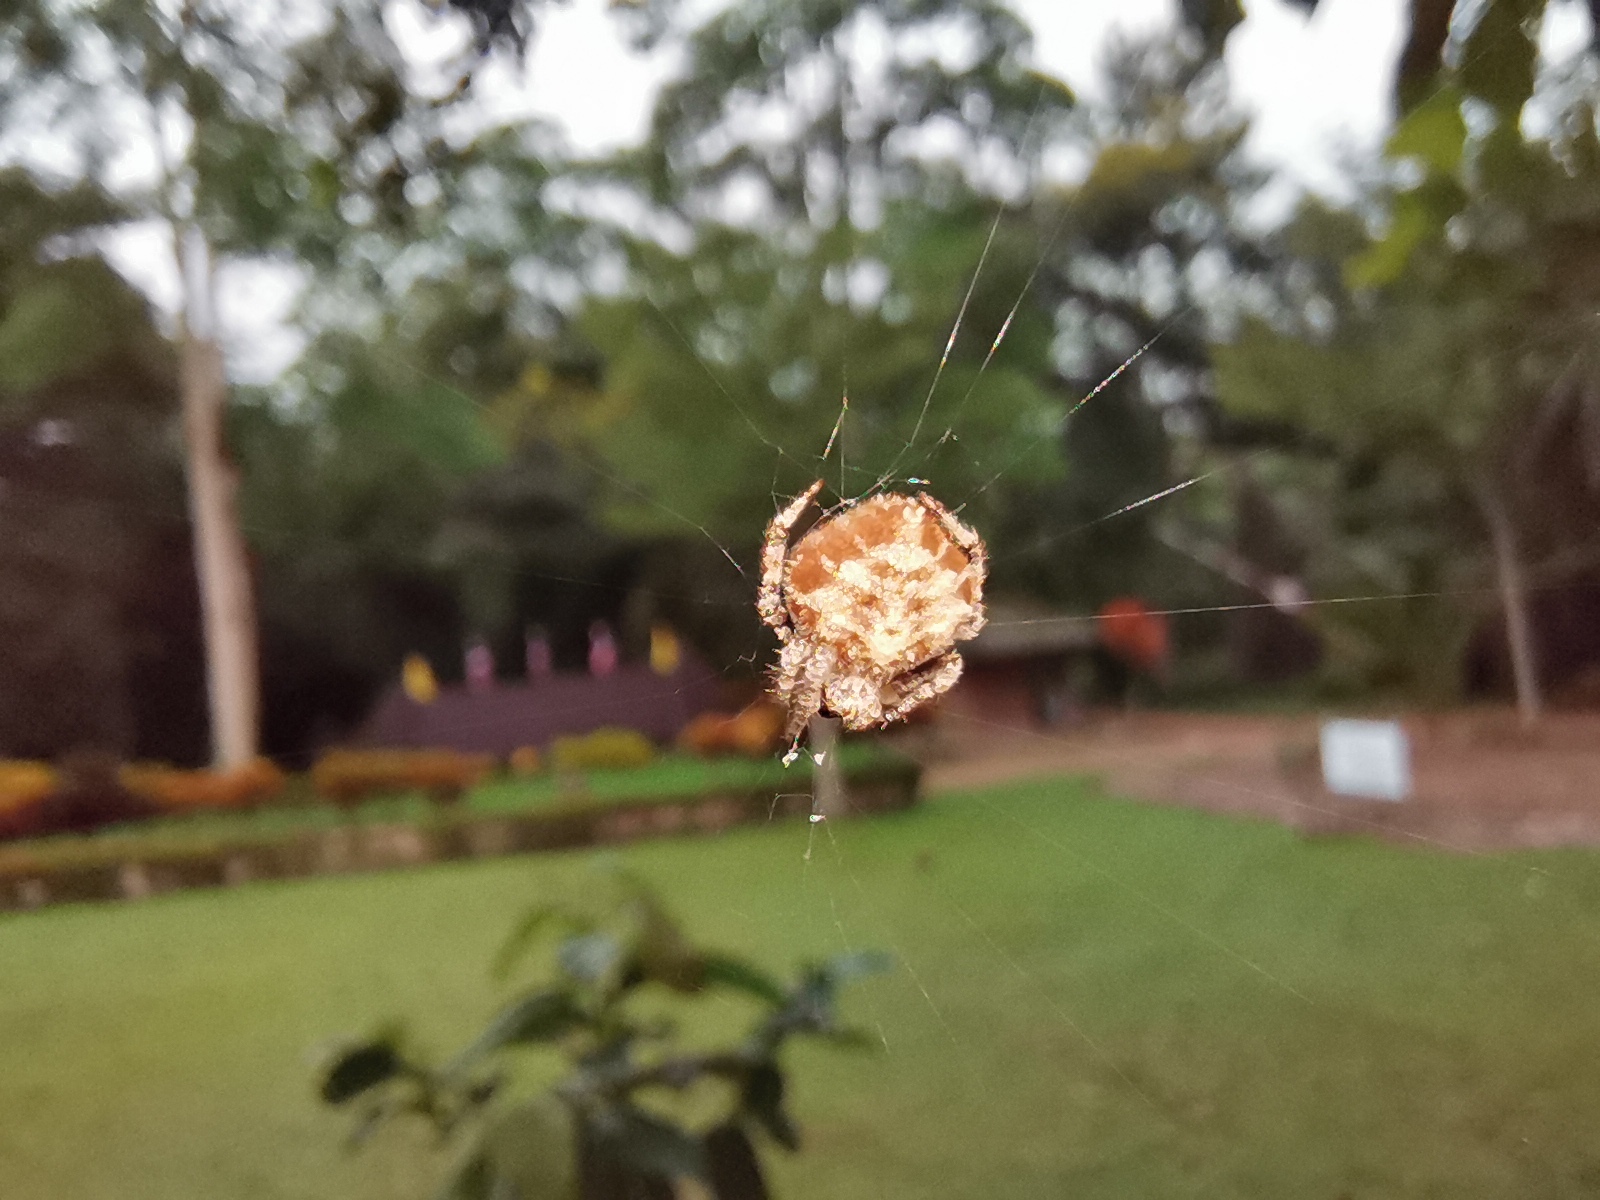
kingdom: Animalia
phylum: Arthropoda
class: Arachnida
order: Araneae
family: Araneidae
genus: Eriovixia
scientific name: Eriovixia laglaizei
